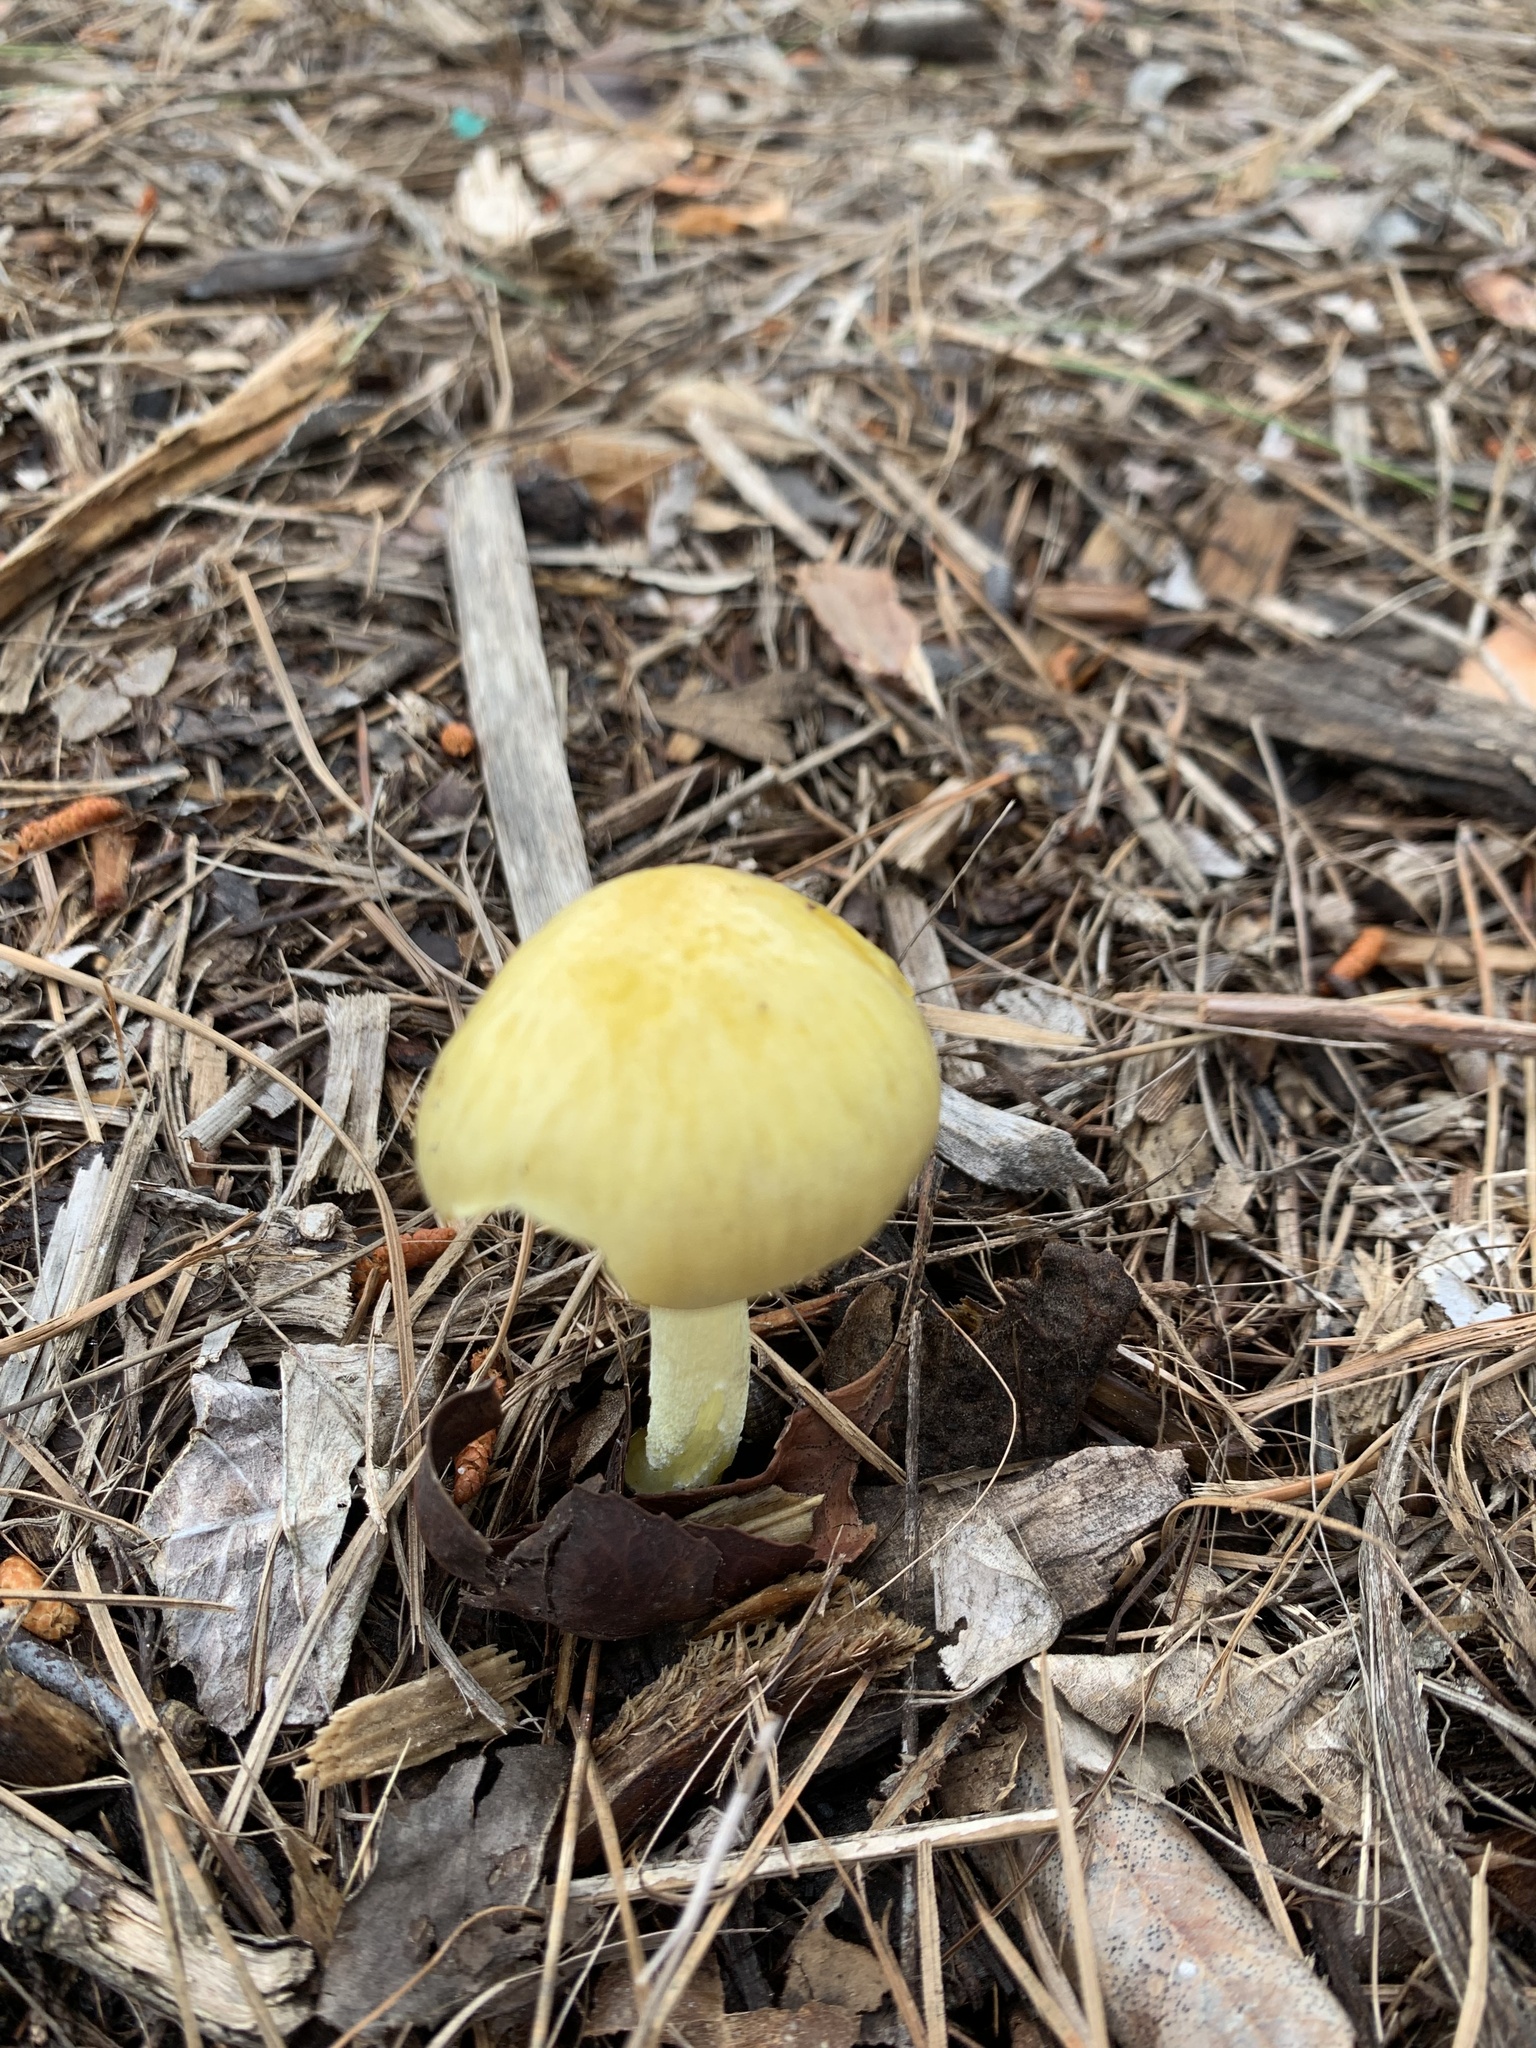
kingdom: Fungi
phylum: Basidiomycota
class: Agaricomycetes
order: Agaricales
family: Bolbitiaceae
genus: Bolbitius
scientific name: Bolbitius titubans
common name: Yellow fieldcap
